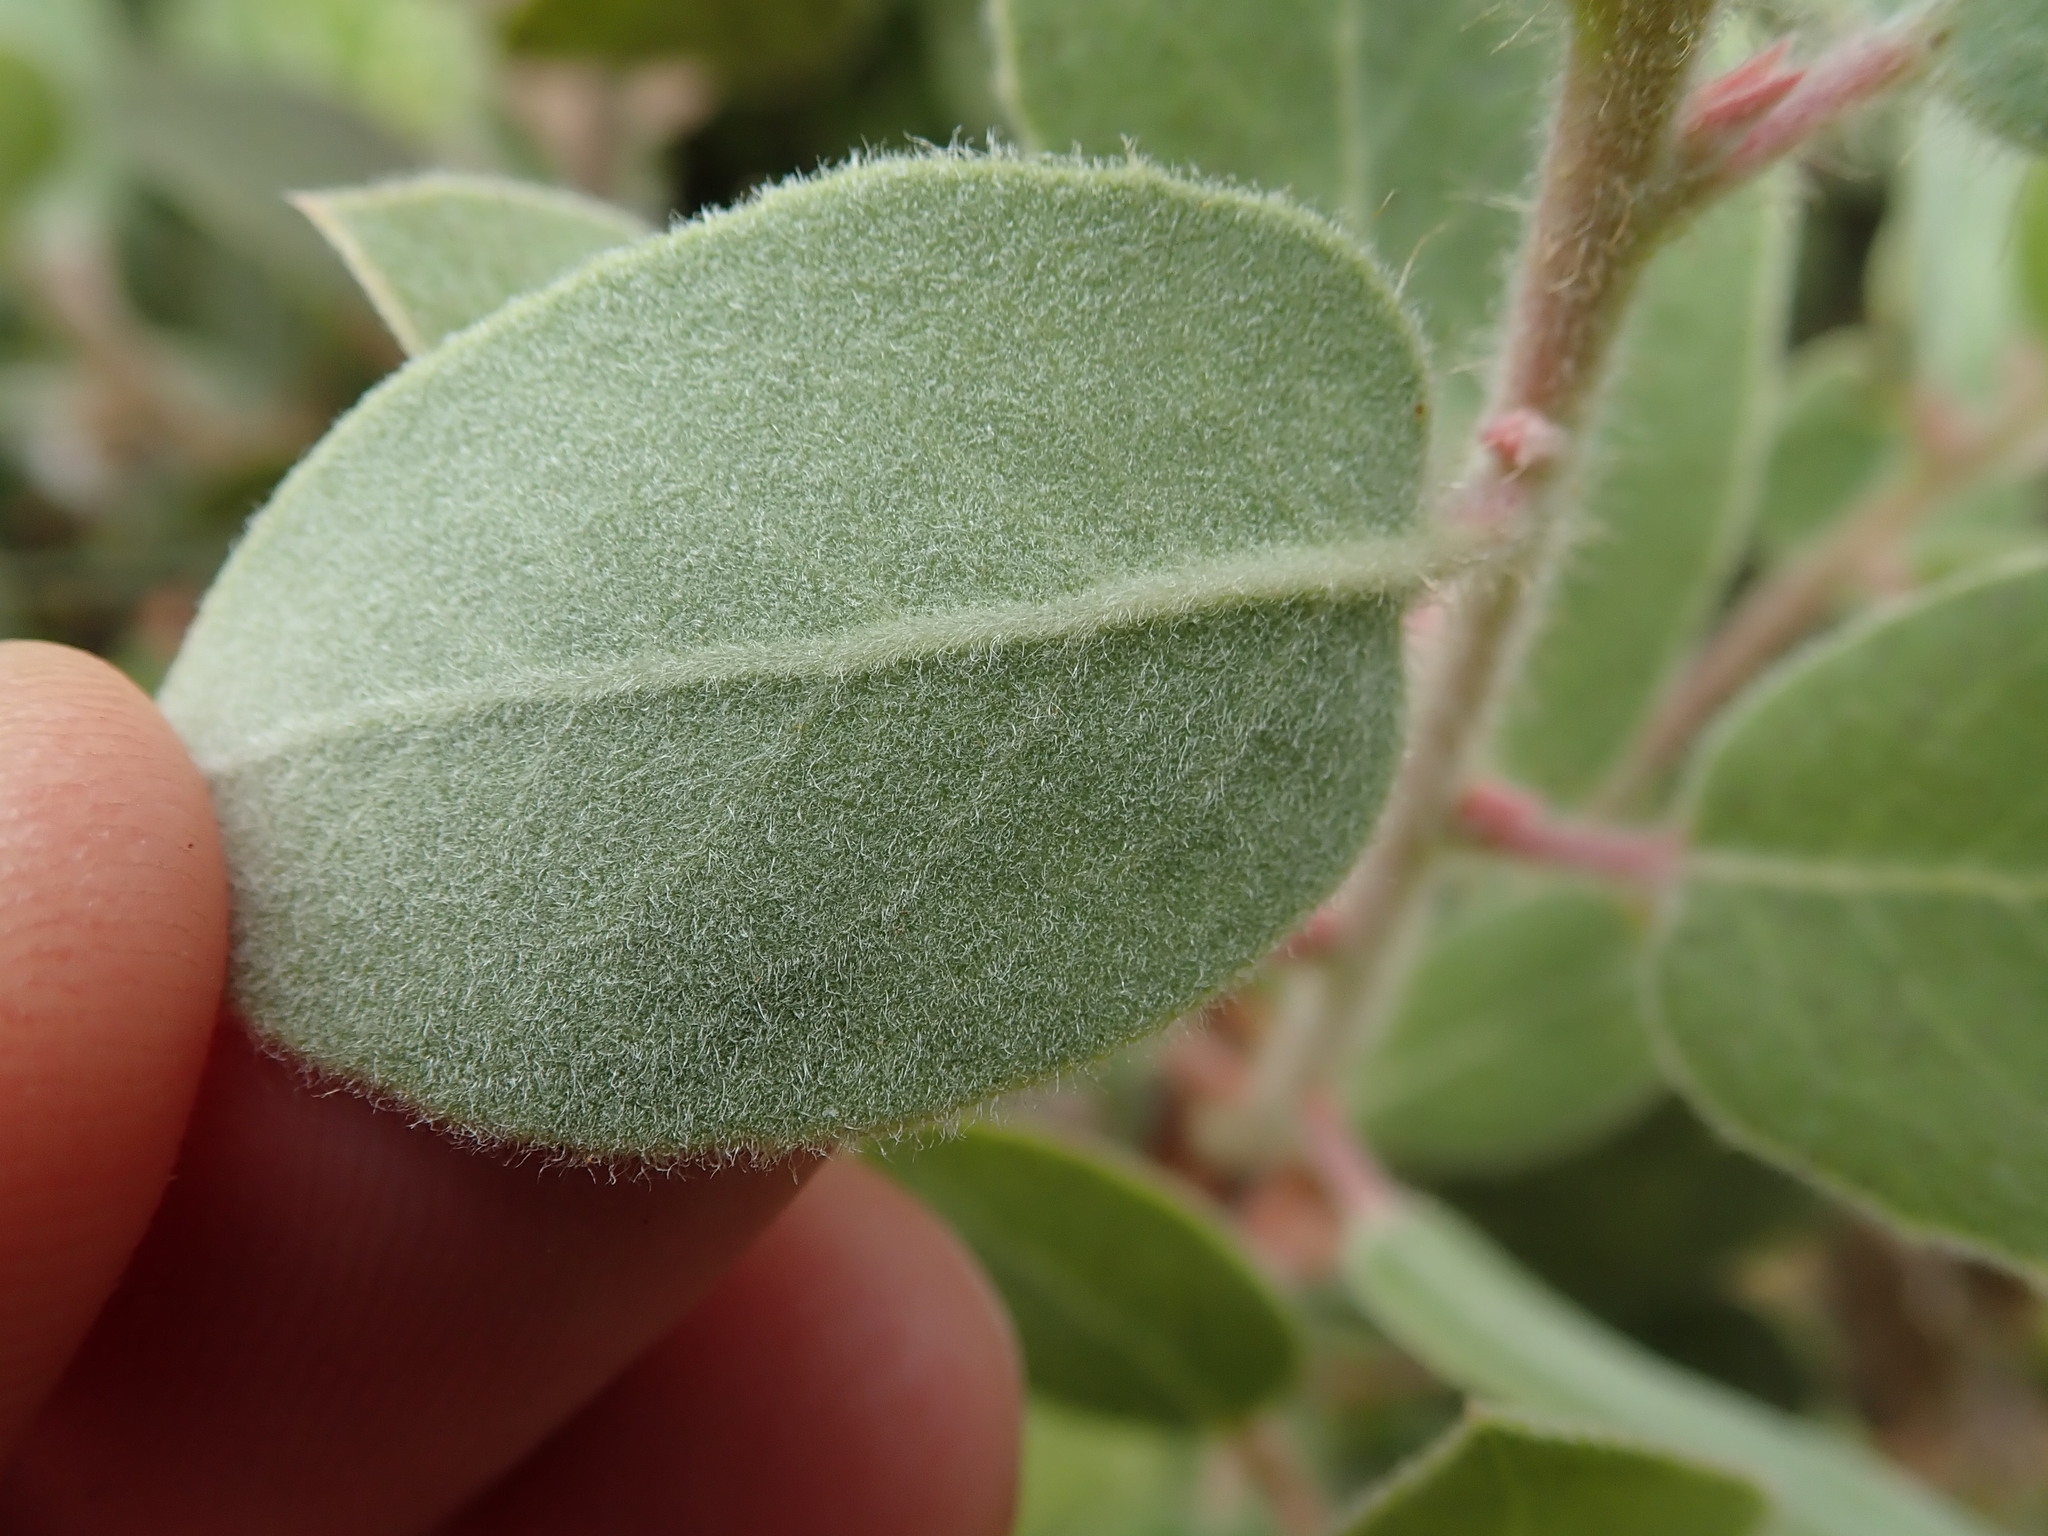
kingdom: Plantae
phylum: Tracheophyta
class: Magnoliopsida
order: Ericales
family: Ericaceae
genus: Arctostaphylos
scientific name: Arctostaphylos crustacea
